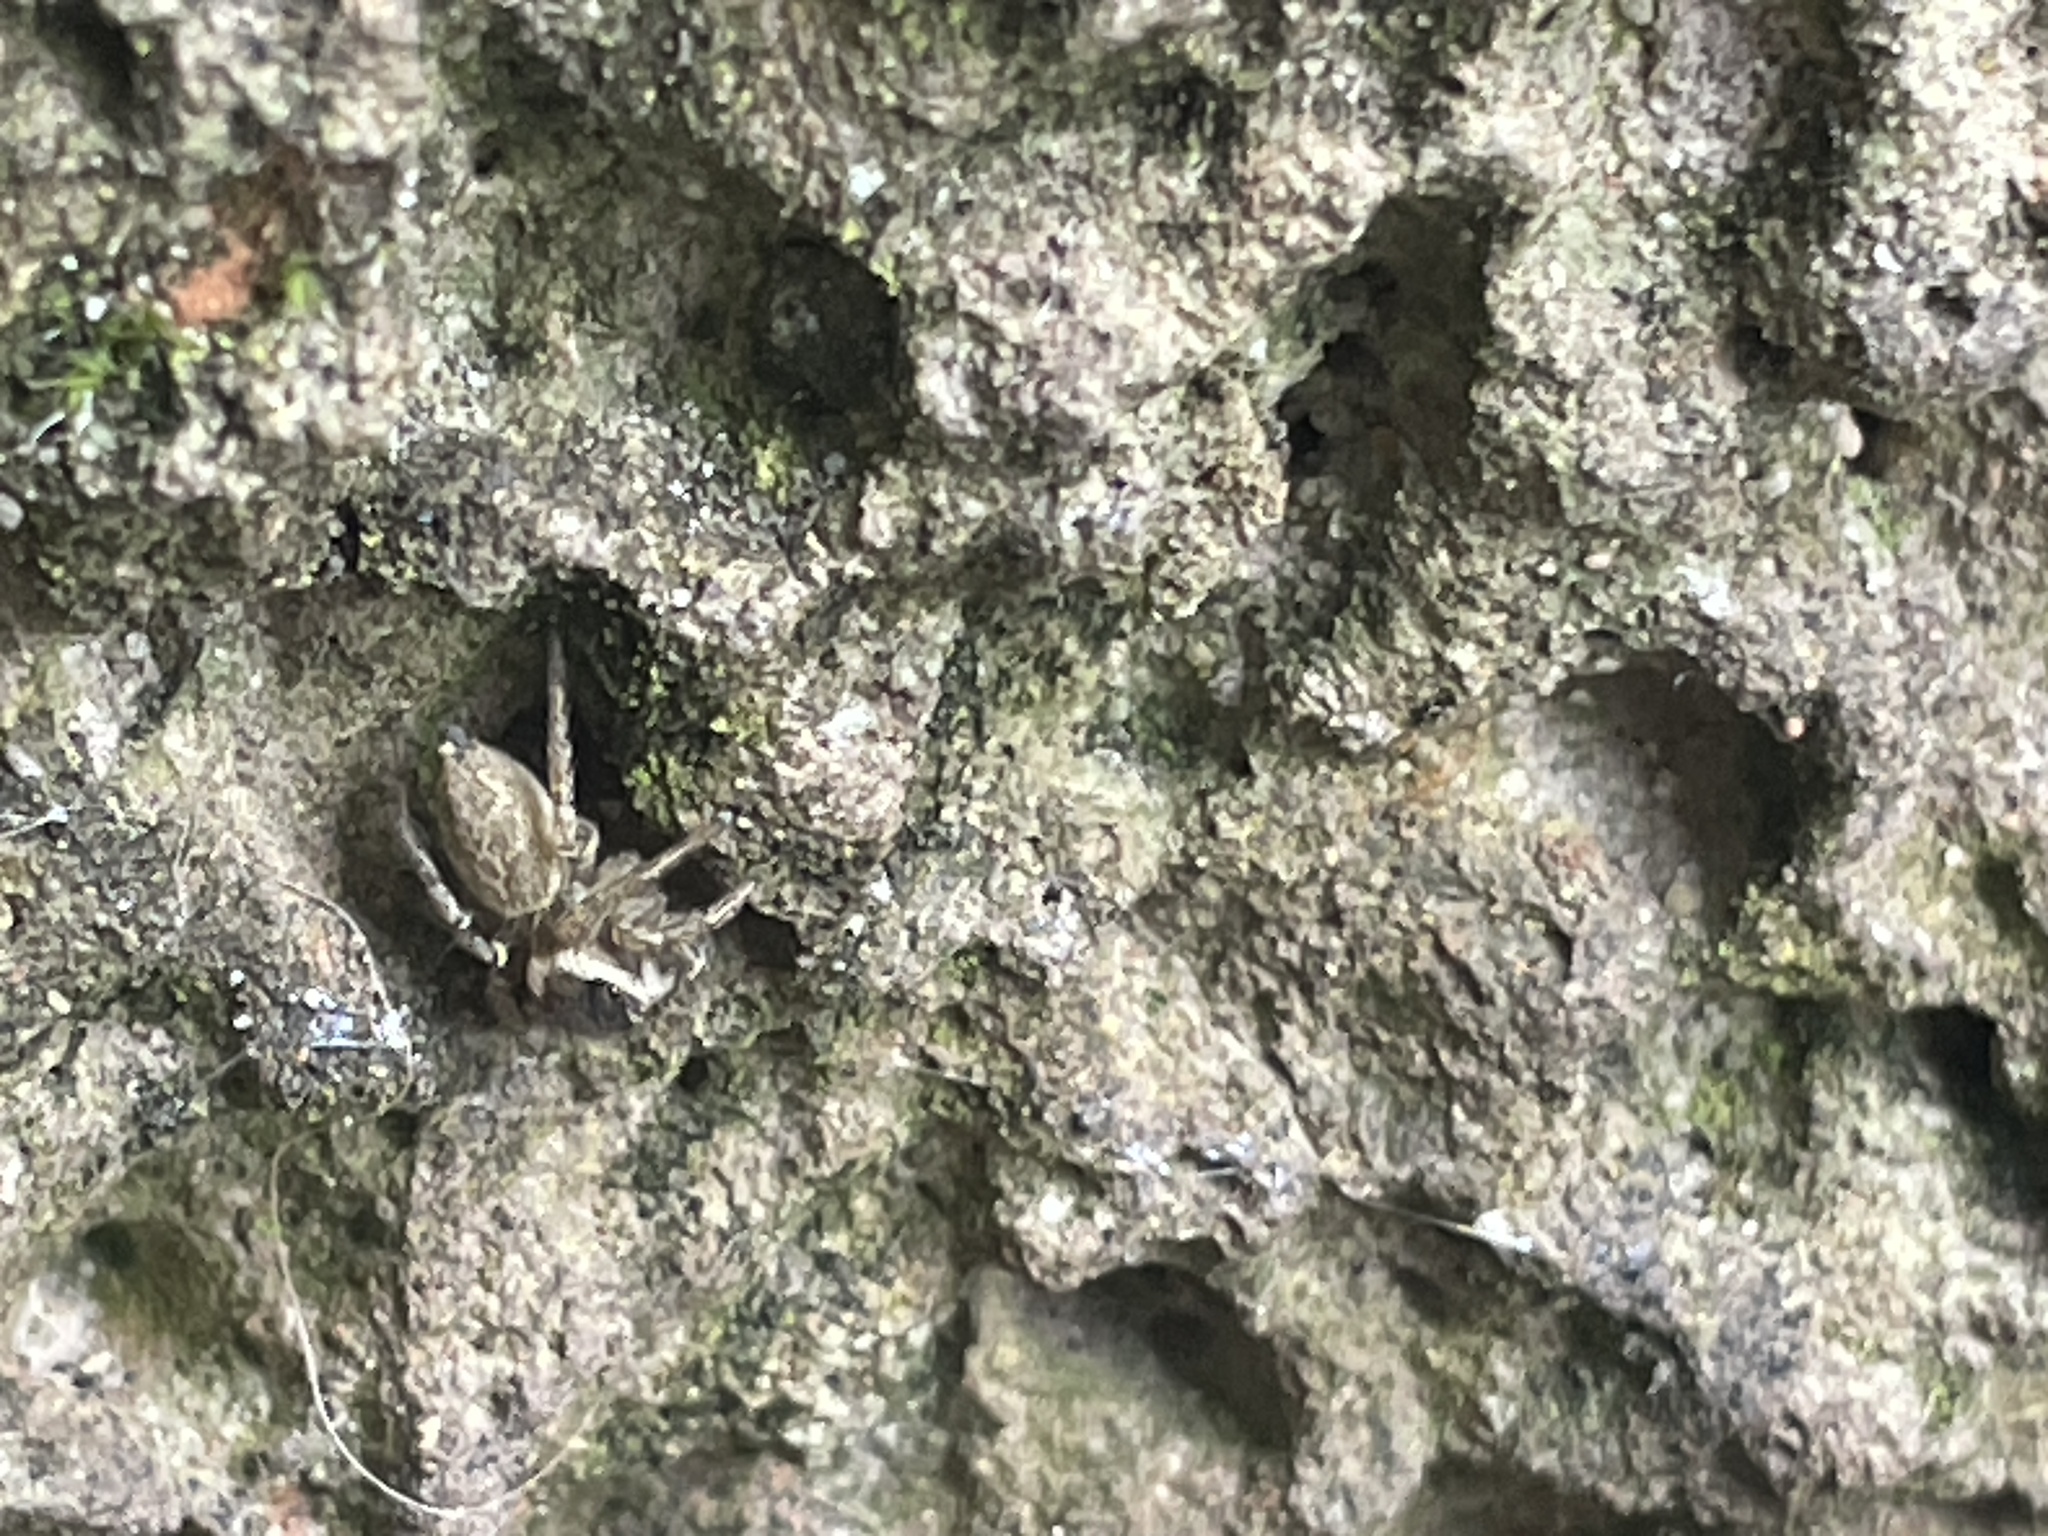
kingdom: Animalia
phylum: Arthropoda
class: Arachnida
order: Araneae
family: Salticidae
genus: Maratus
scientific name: Maratus griseus
